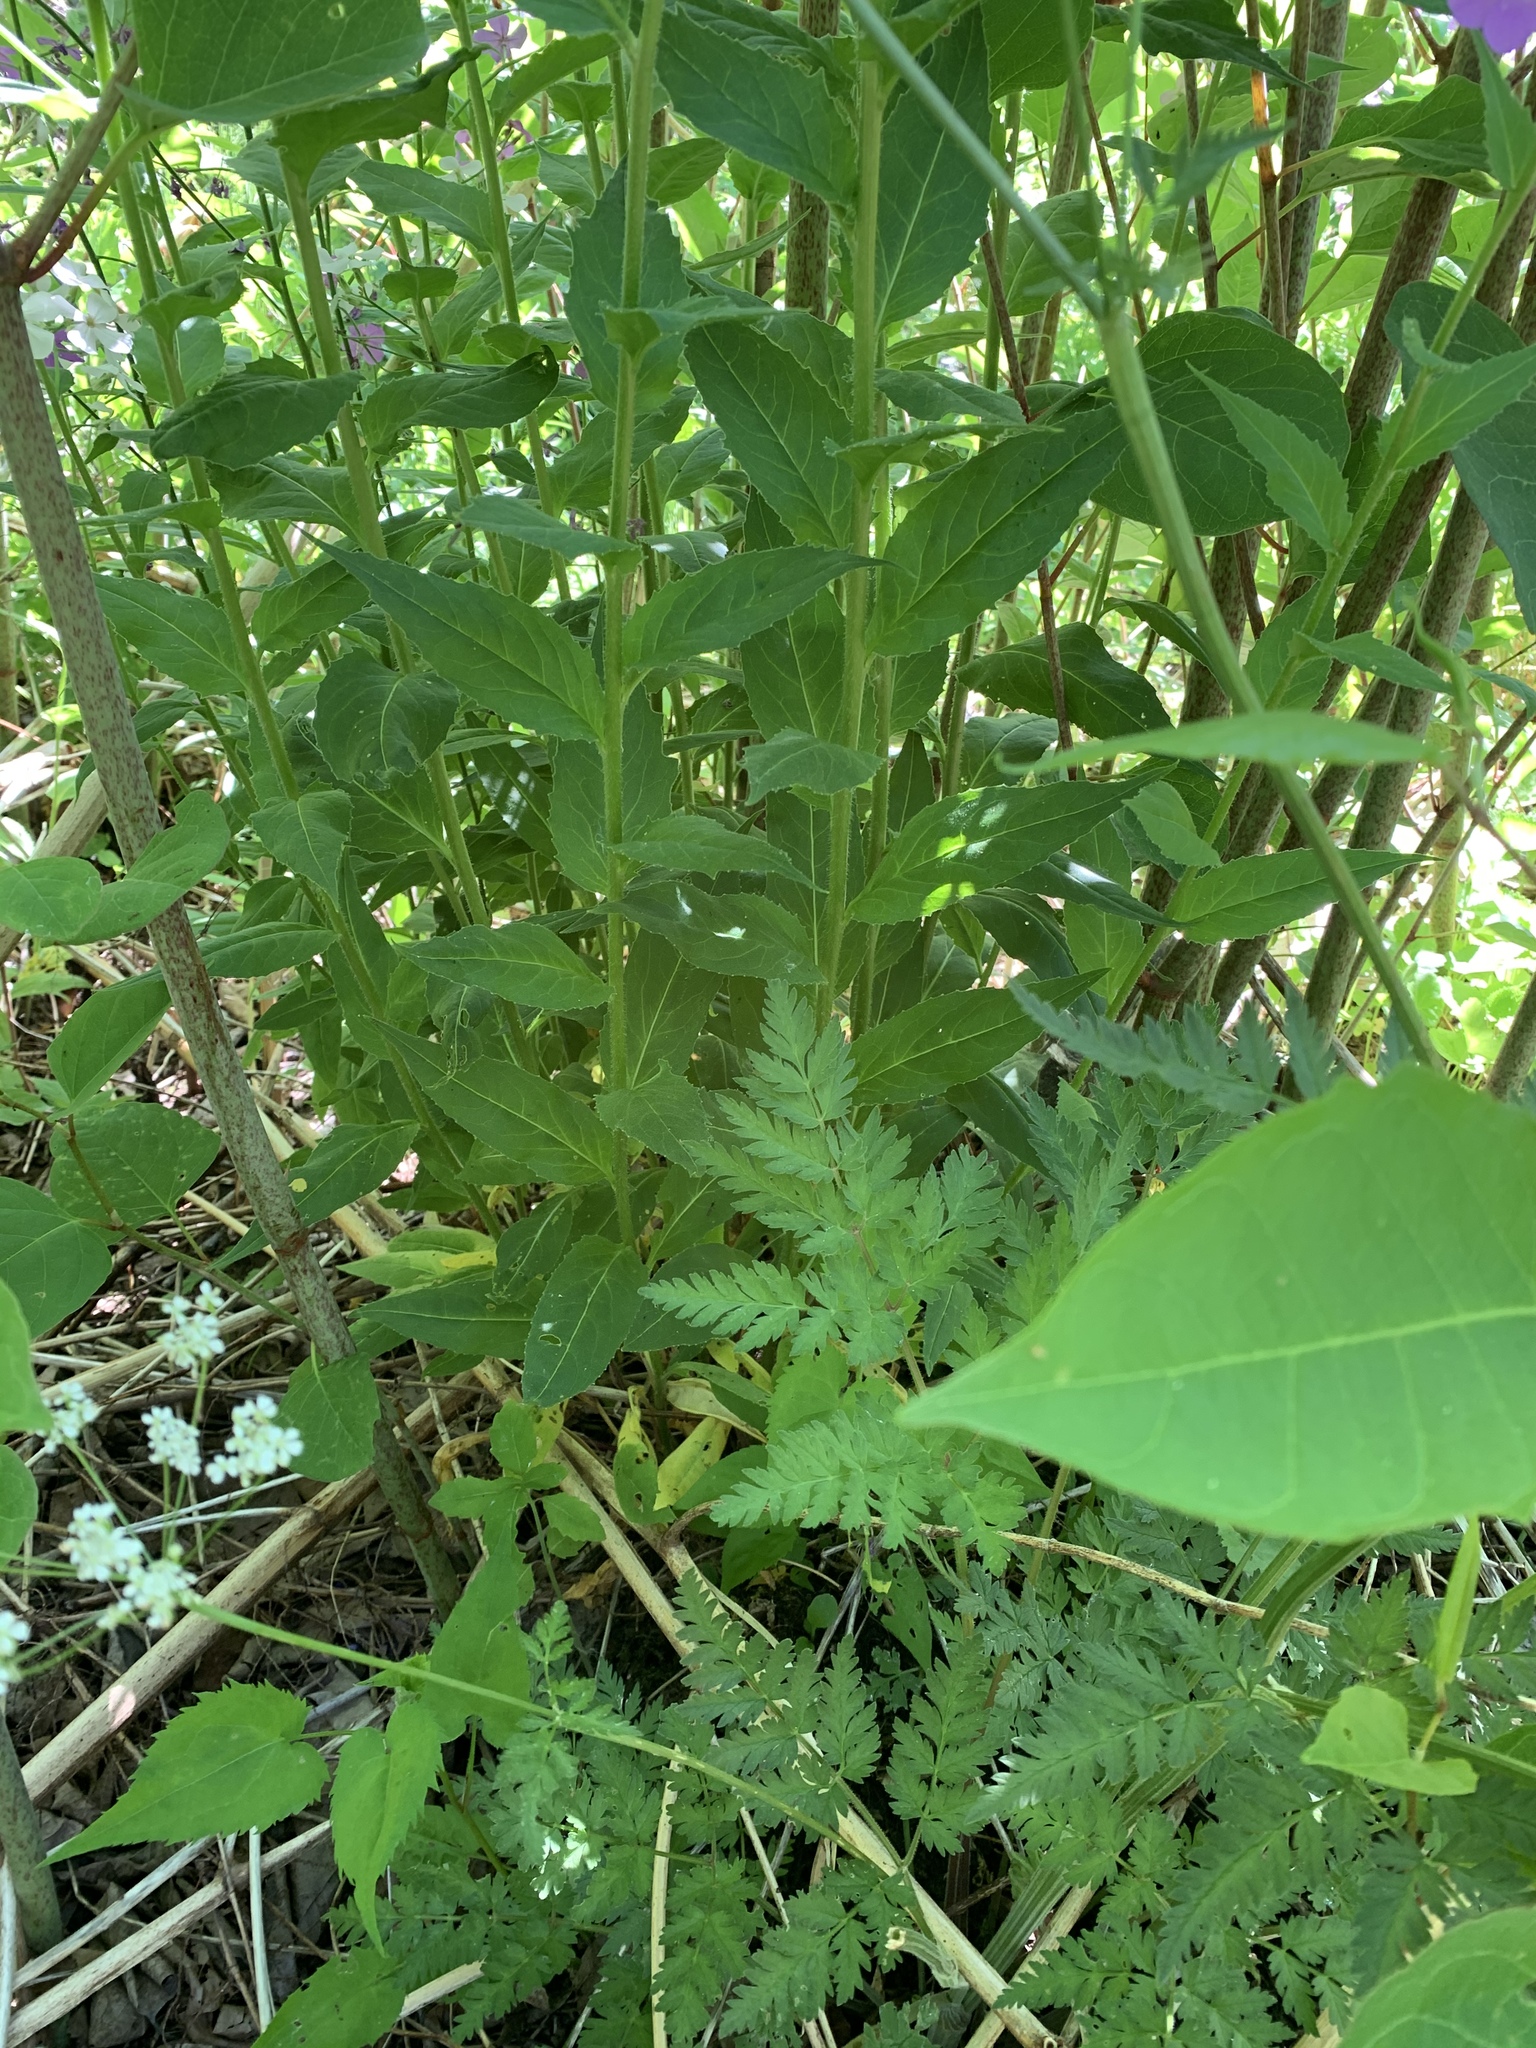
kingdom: Plantae
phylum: Tracheophyta
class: Magnoliopsida
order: Brassicales
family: Brassicaceae
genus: Hesperis
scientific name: Hesperis matronalis
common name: Dame's-violet
